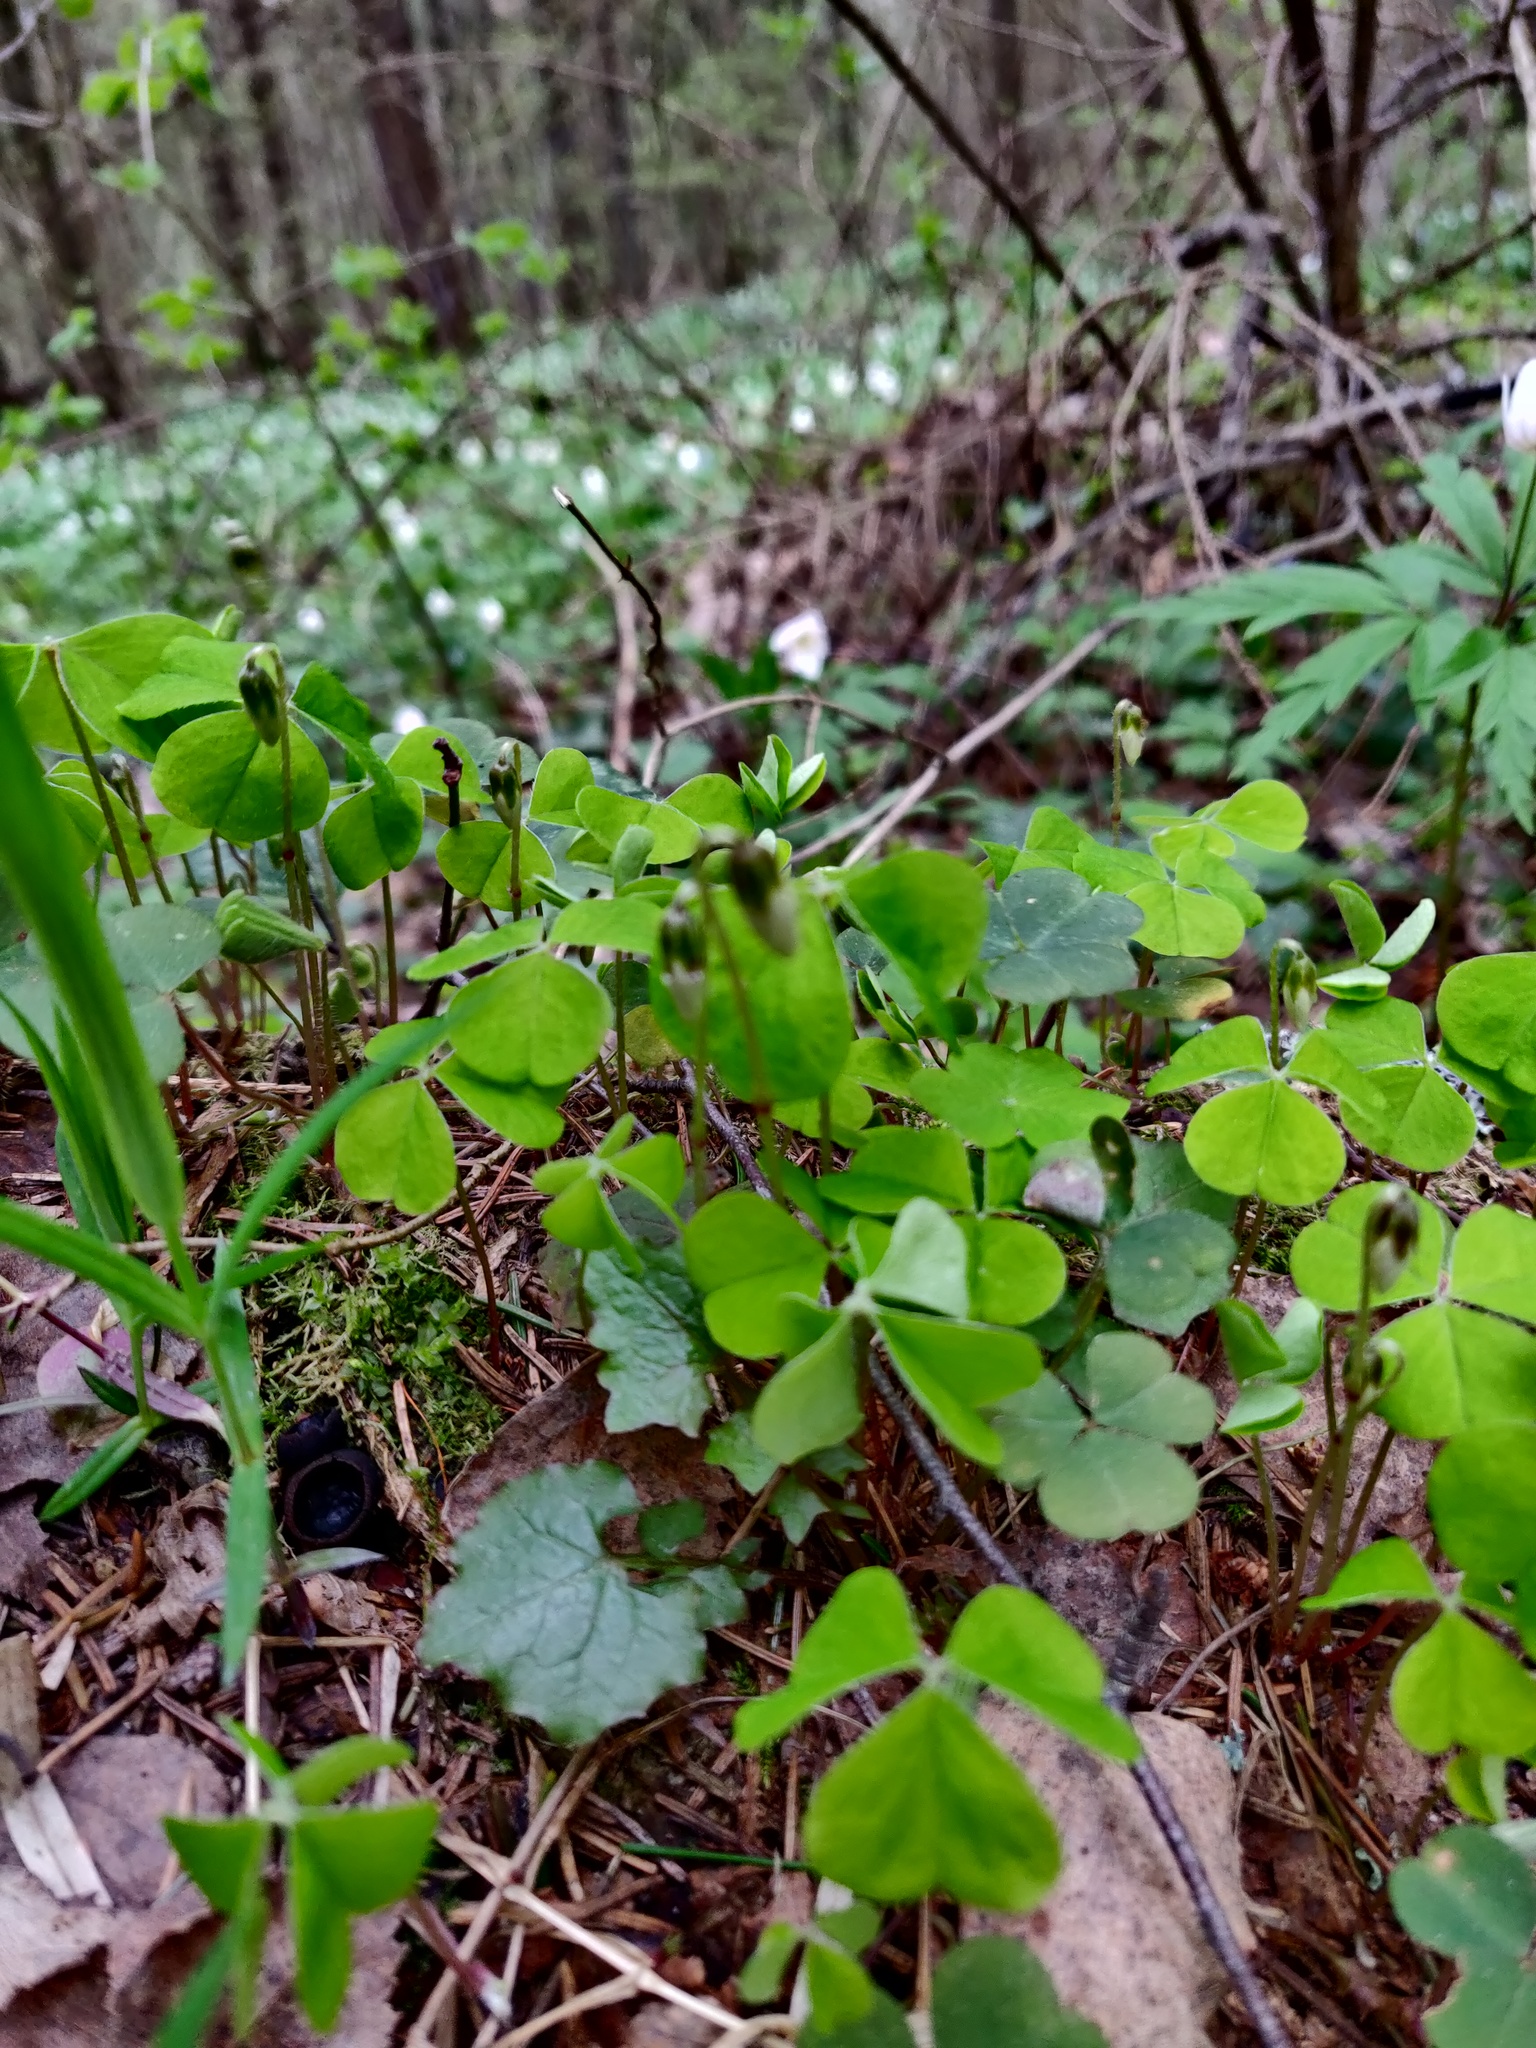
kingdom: Plantae
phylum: Tracheophyta
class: Magnoliopsida
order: Oxalidales
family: Oxalidaceae
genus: Oxalis
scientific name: Oxalis acetosella
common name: Wood-sorrel
